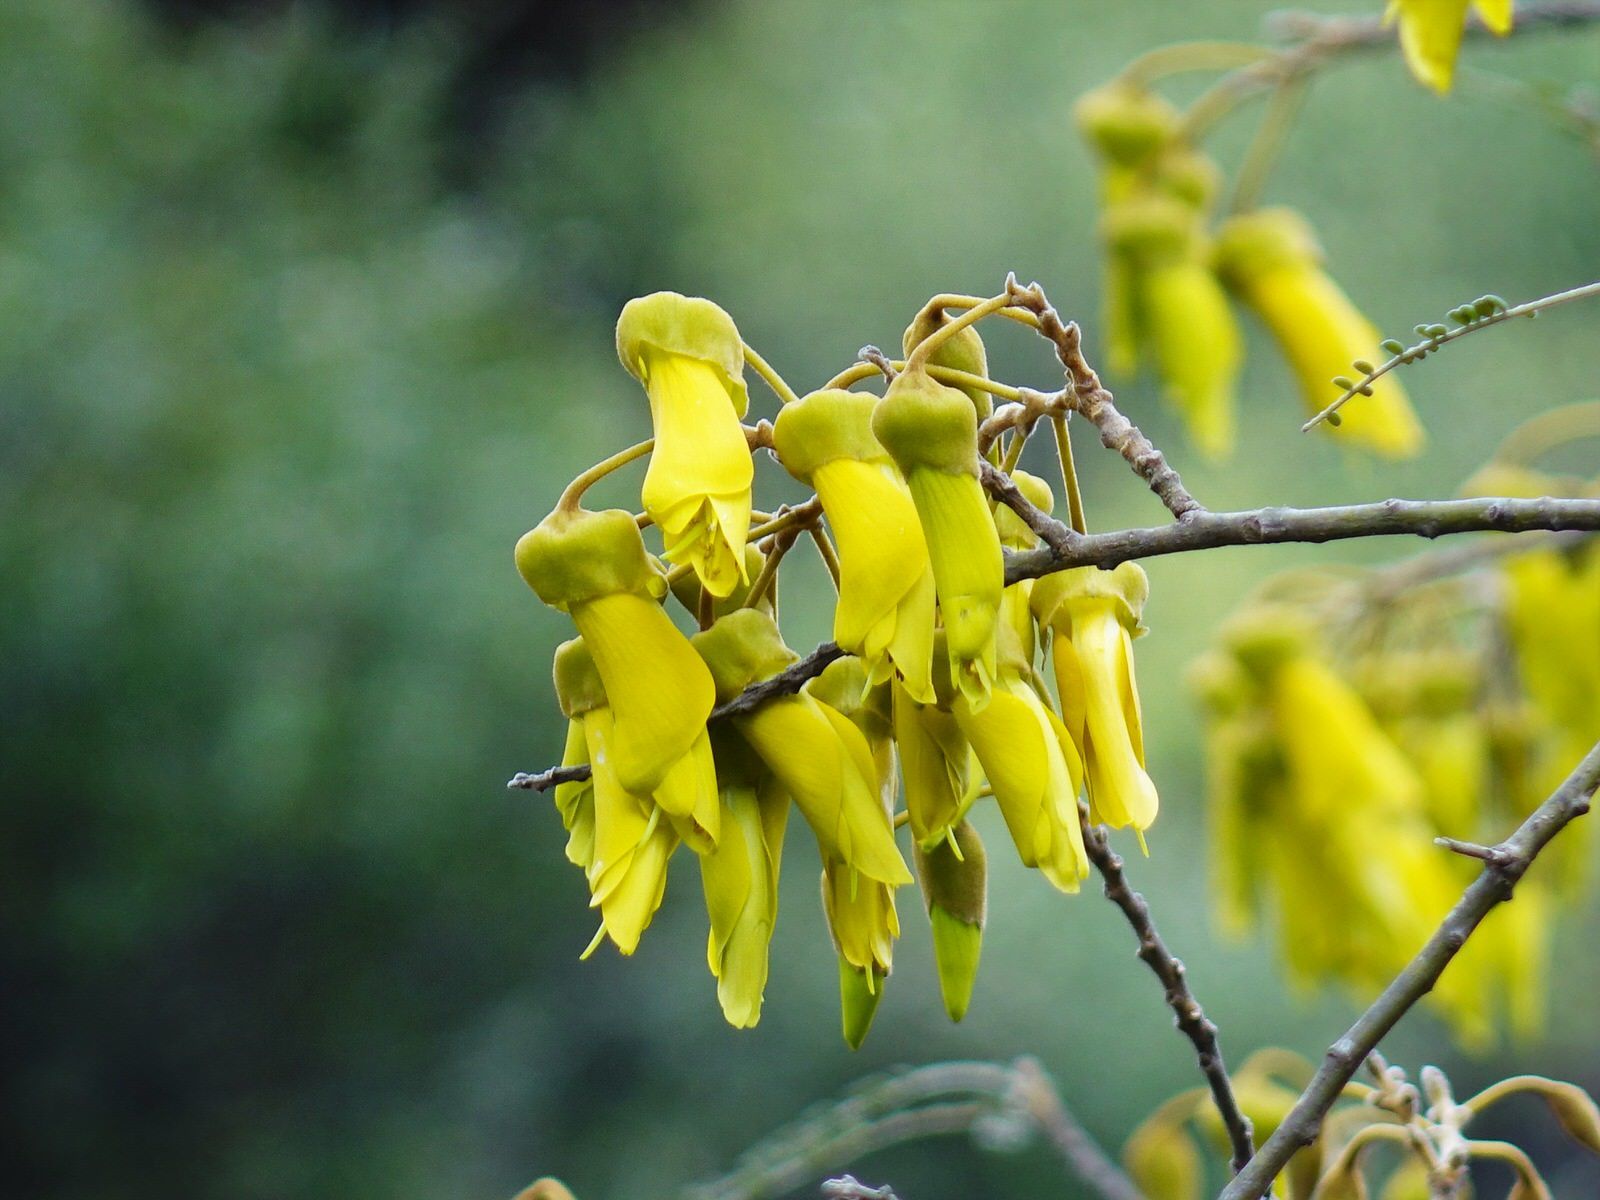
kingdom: Plantae
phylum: Tracheophyta
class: Magnoliopsida
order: Fabales
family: Fabaceae
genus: Sophora
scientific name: Sophora fulvida
